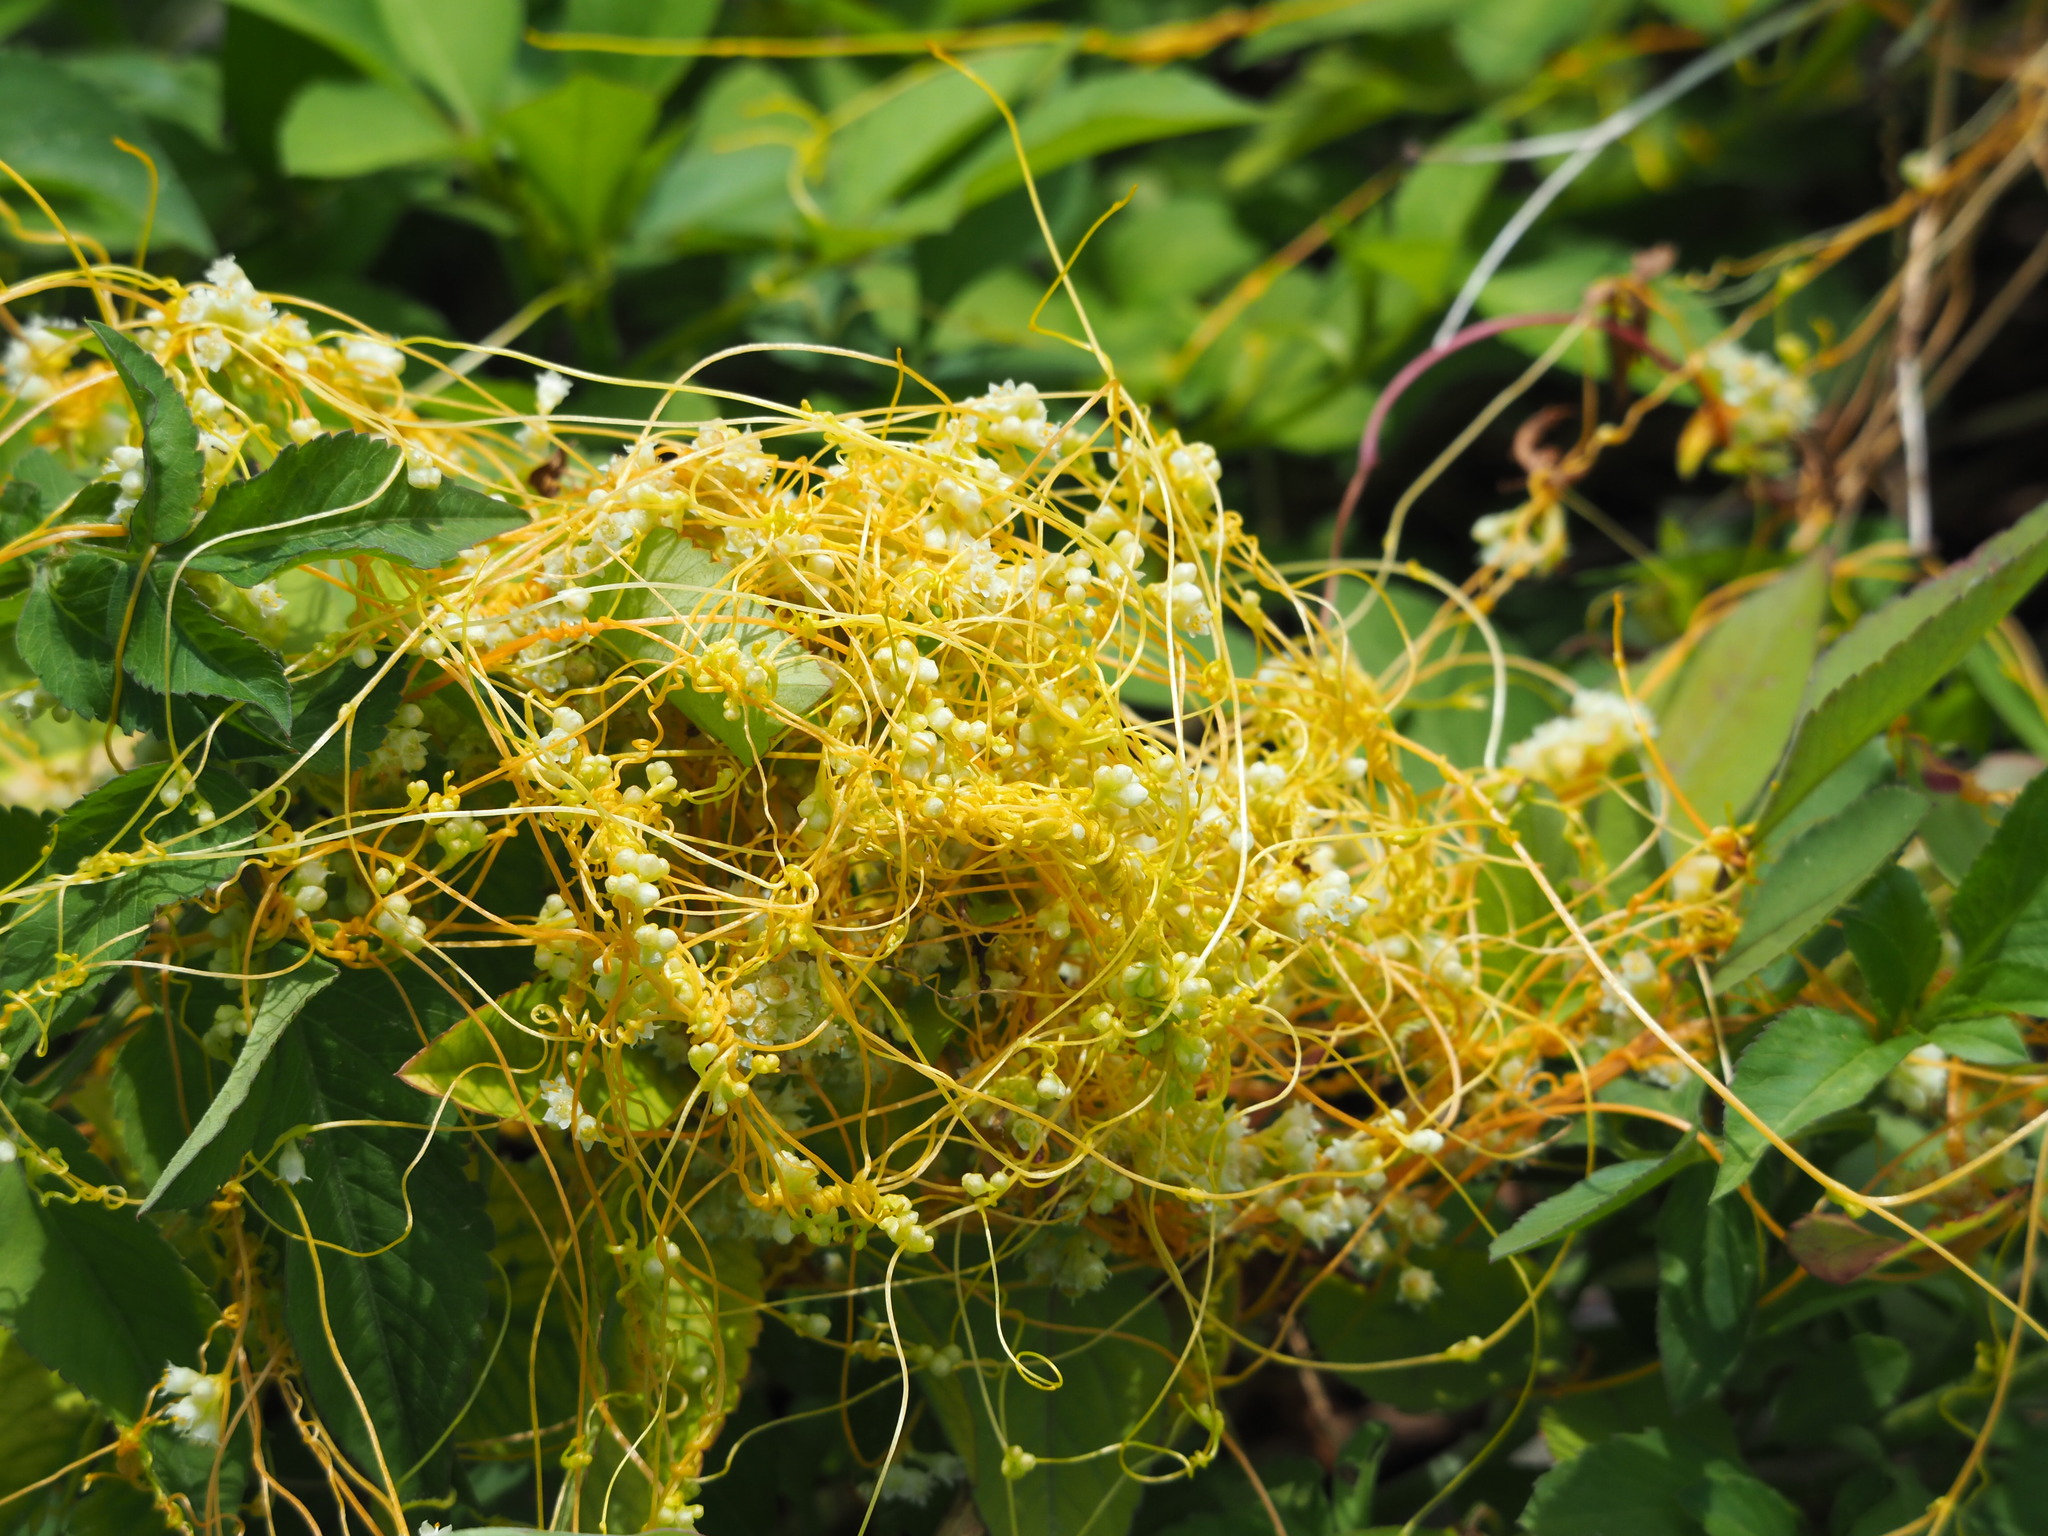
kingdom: Plantae
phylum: Tracheophyta
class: Magnoliopsida
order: Solanales
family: Convolvulaceae
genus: Cuscuta
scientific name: Cuscuta campestris
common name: Yellow dodder
